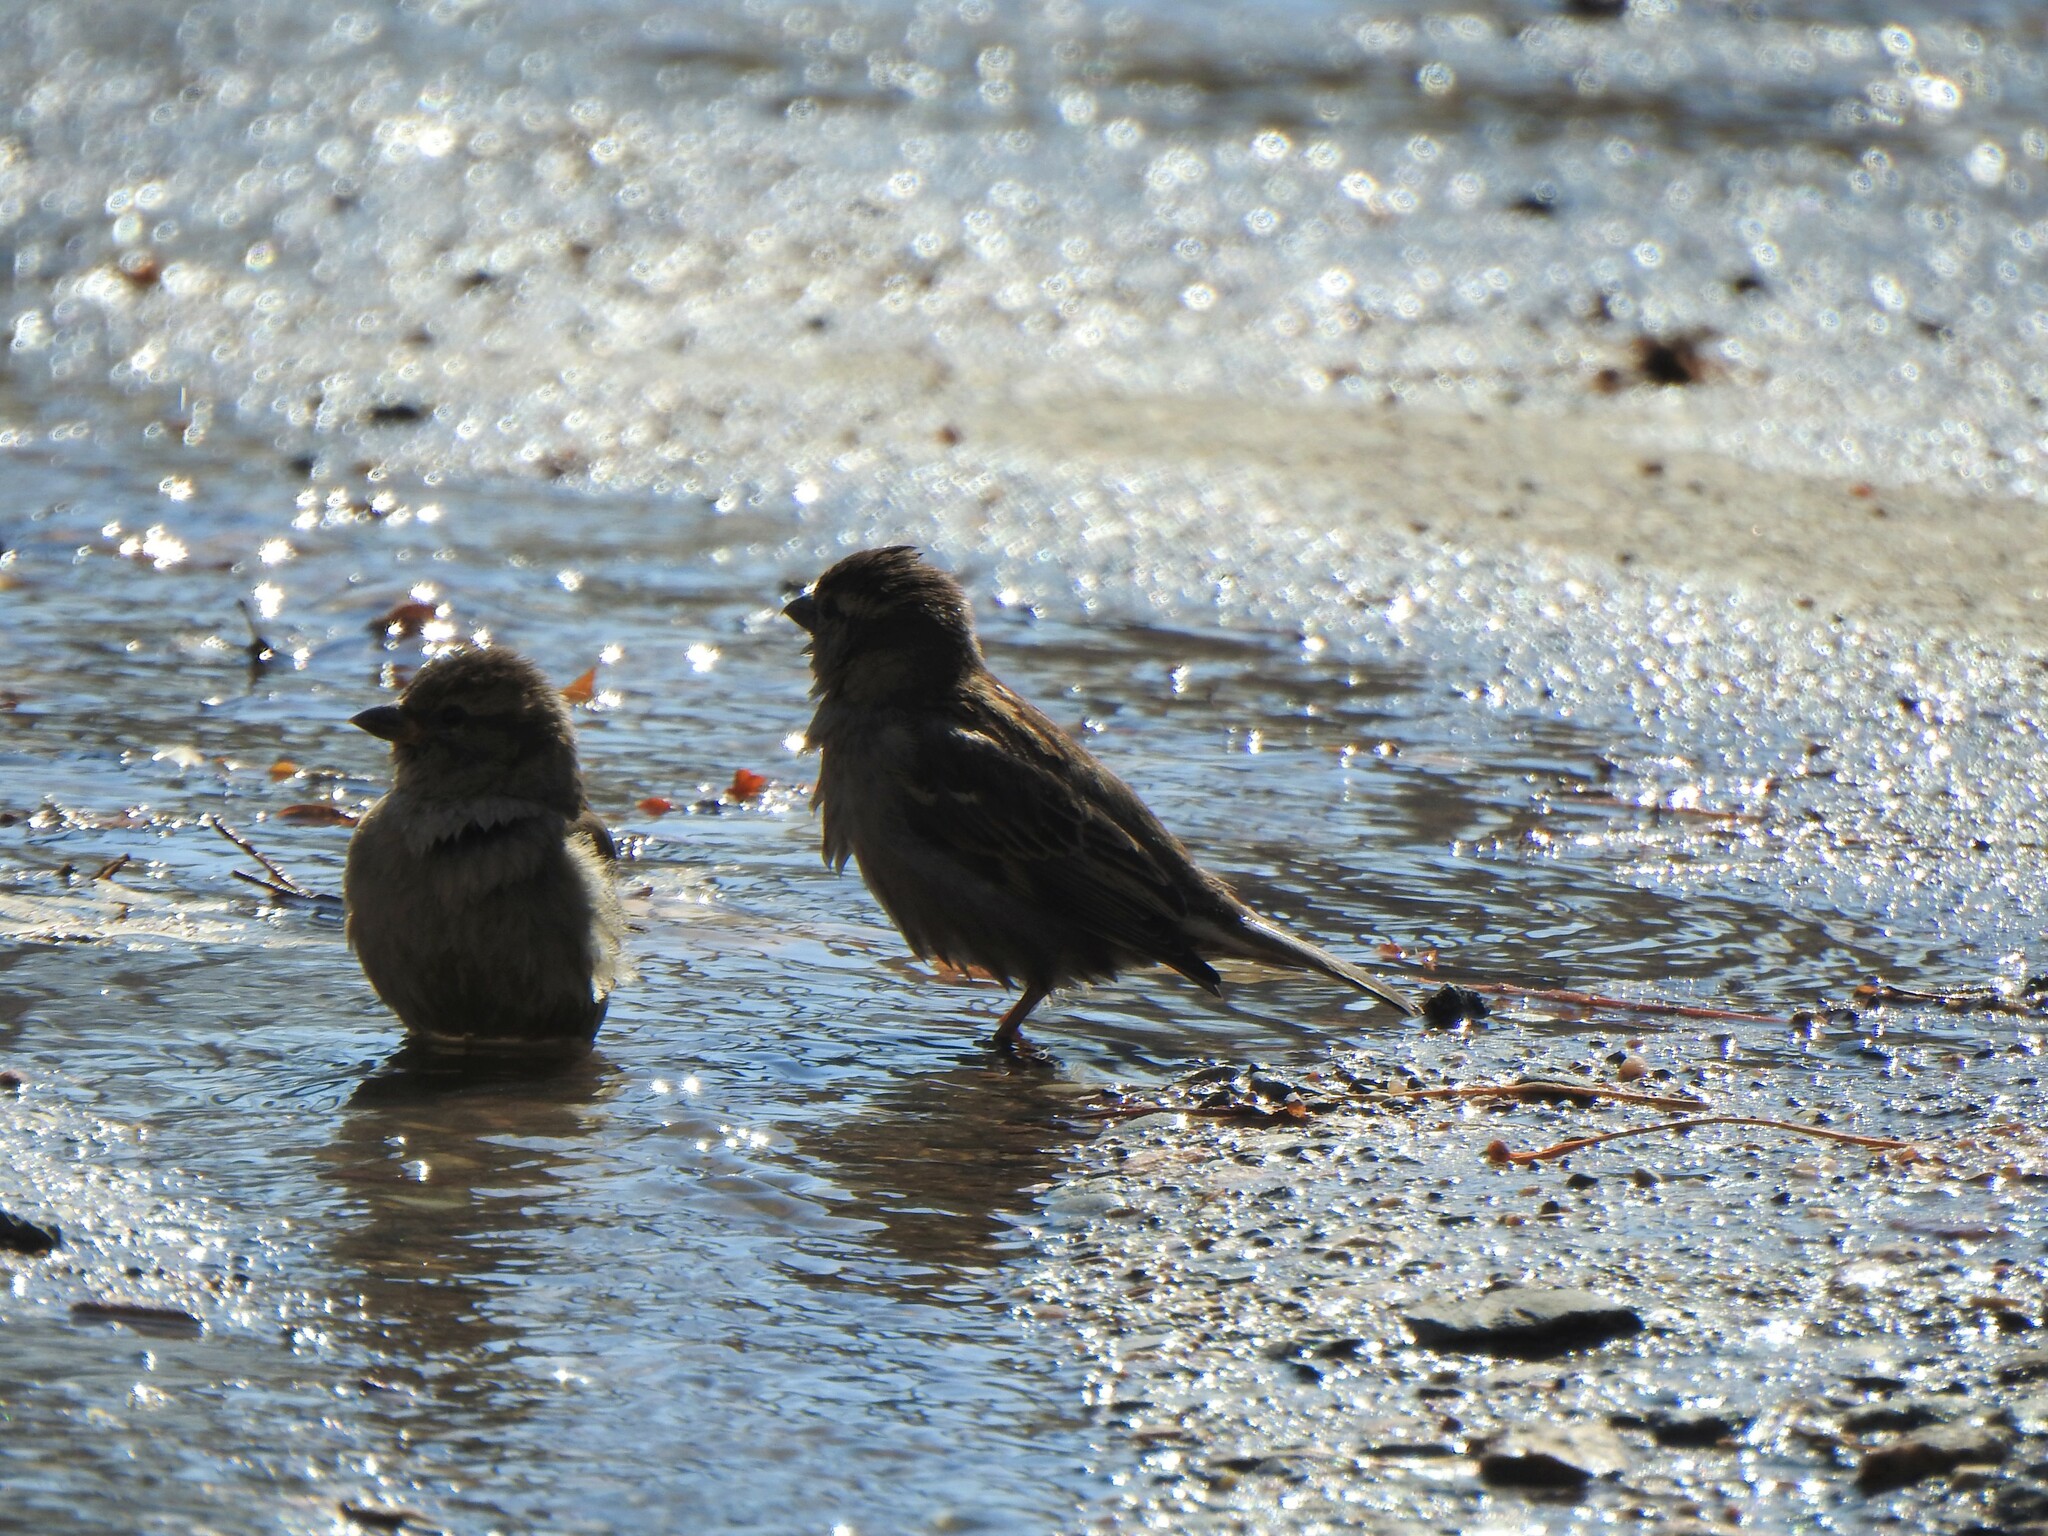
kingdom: Animalia
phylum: Chordata
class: Aves
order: Passeriformes
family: Passeridae
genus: Passer
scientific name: Passer domesticus
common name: House sparrow
